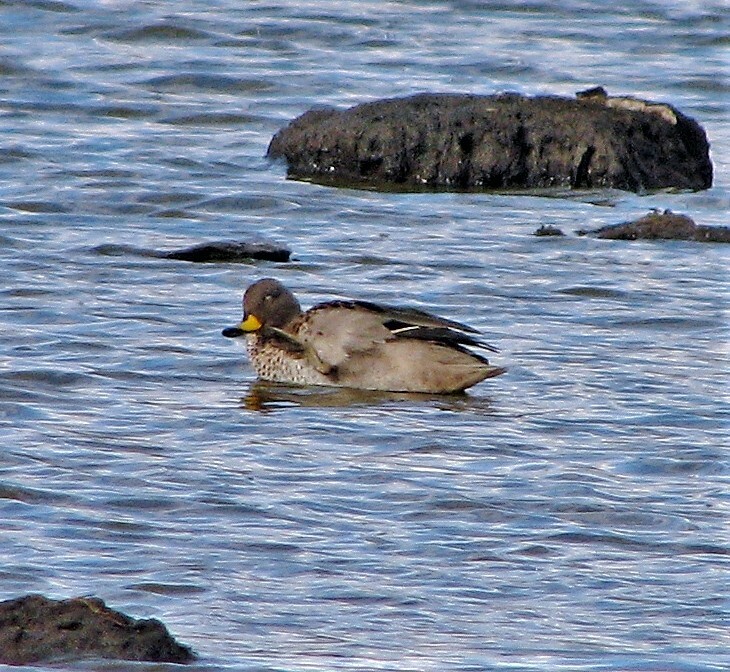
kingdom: Animalia
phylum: Chordata
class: Aves
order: Anseriformes
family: Anatidae
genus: Anas
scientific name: Anas flavirostris
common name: Yellow-billed teal
